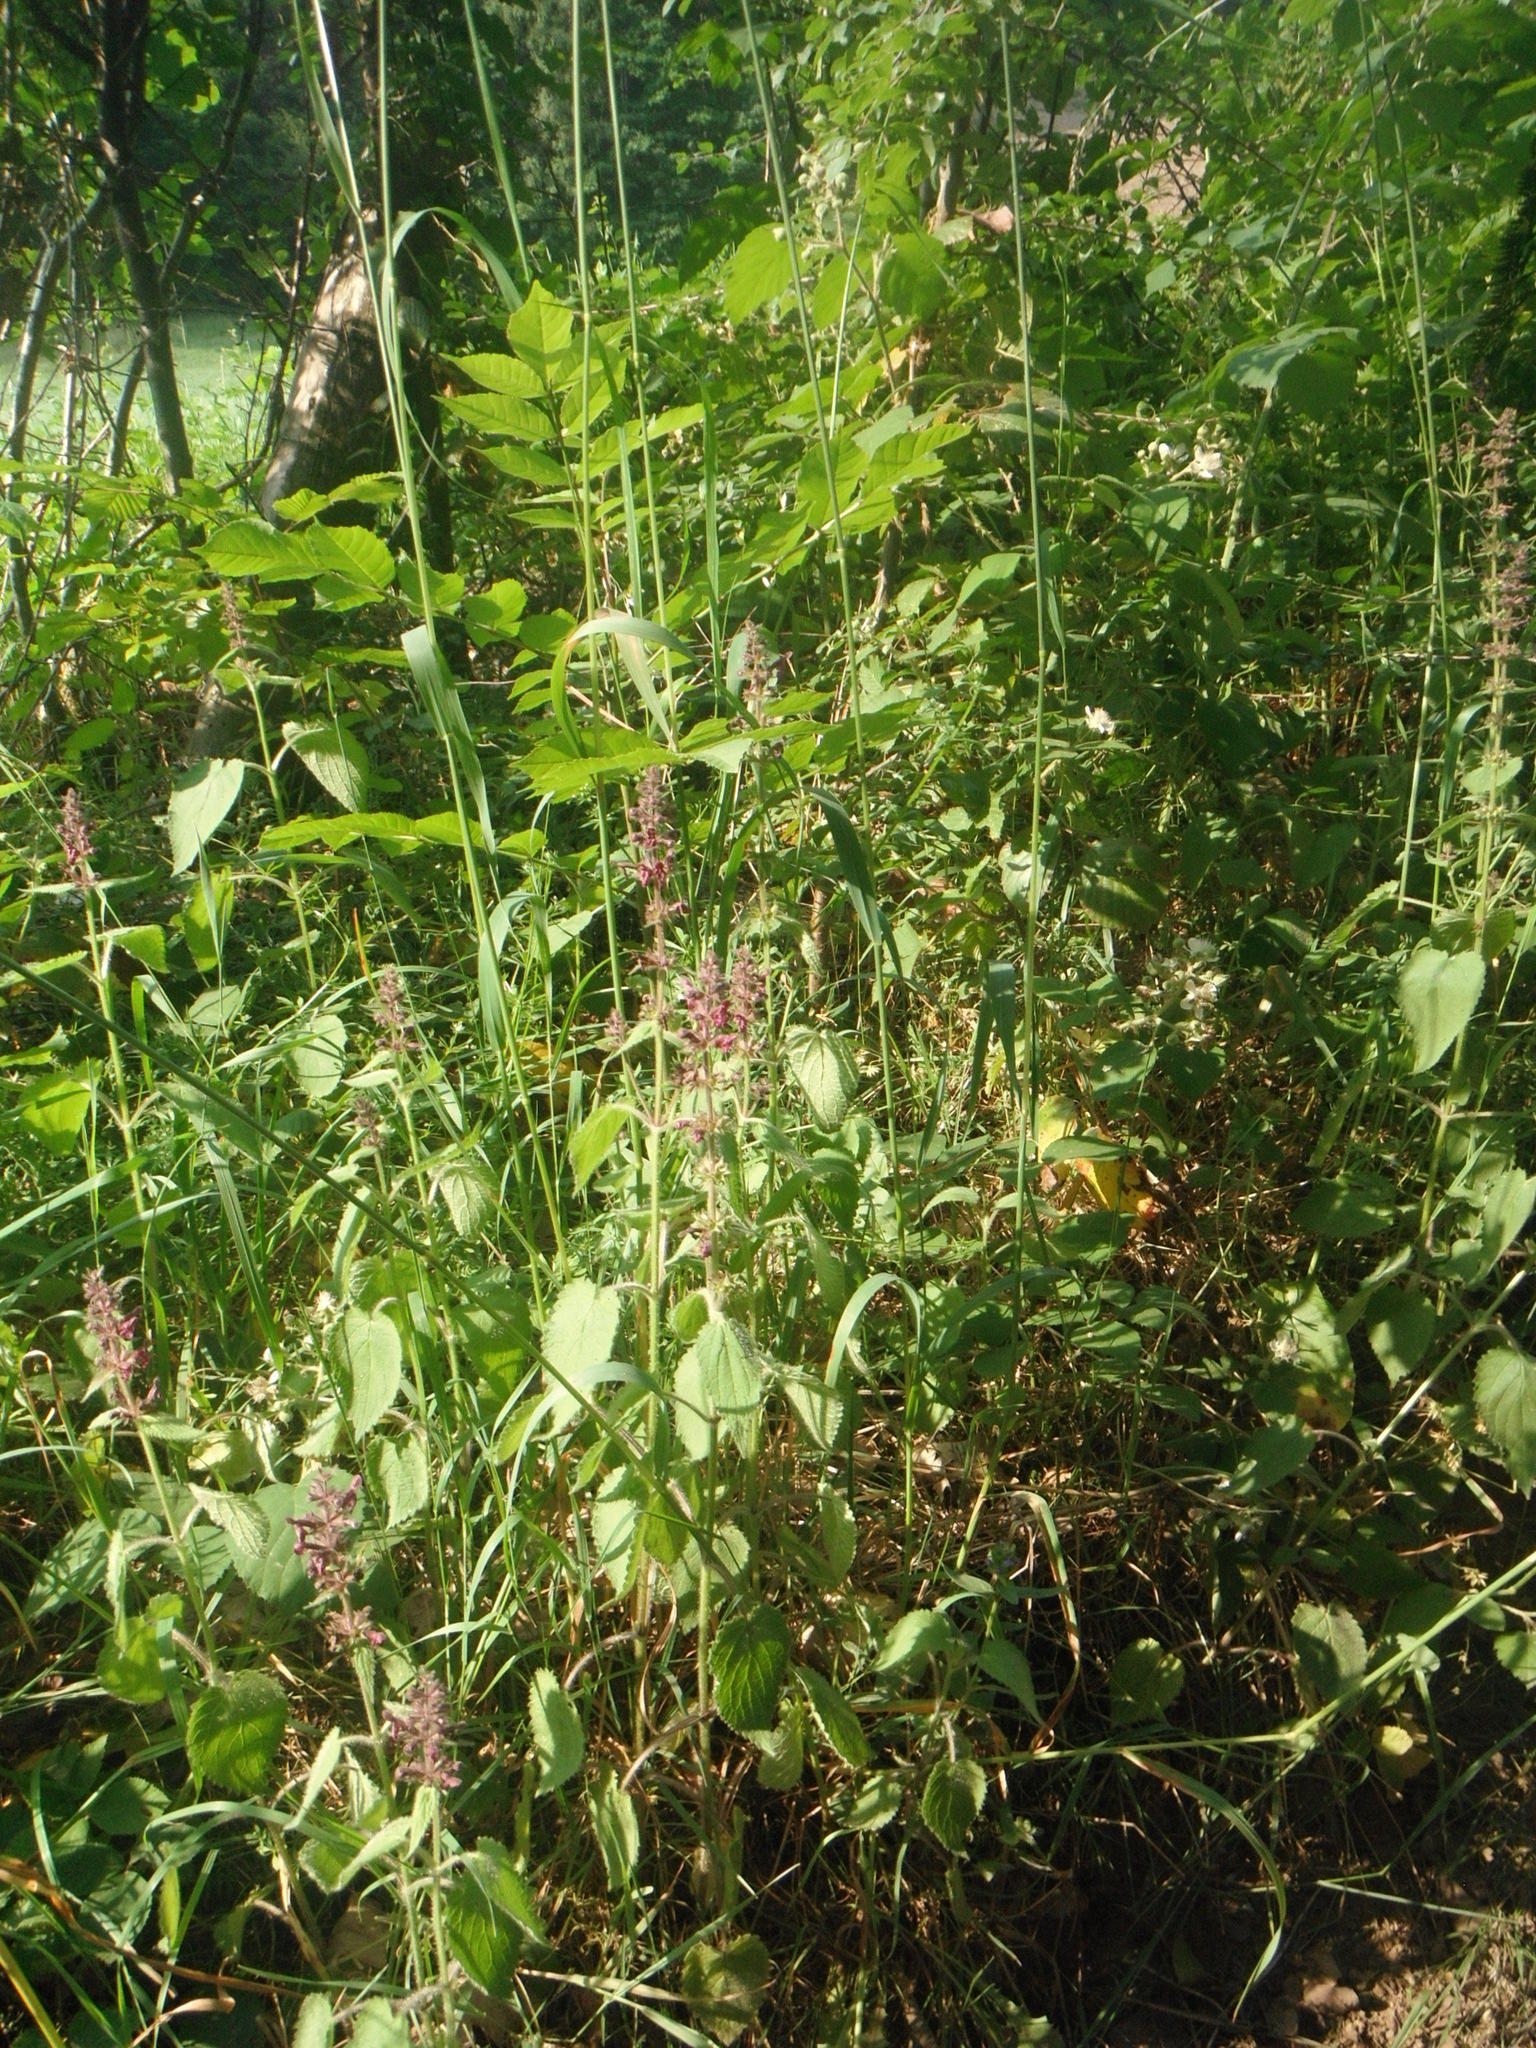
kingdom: Plantae
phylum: Tracheophyta
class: Magnoliopsida
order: Lamiales
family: Lamiaceae
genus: Stachys
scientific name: Stachys sylvatica
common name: Hedge woundwort
